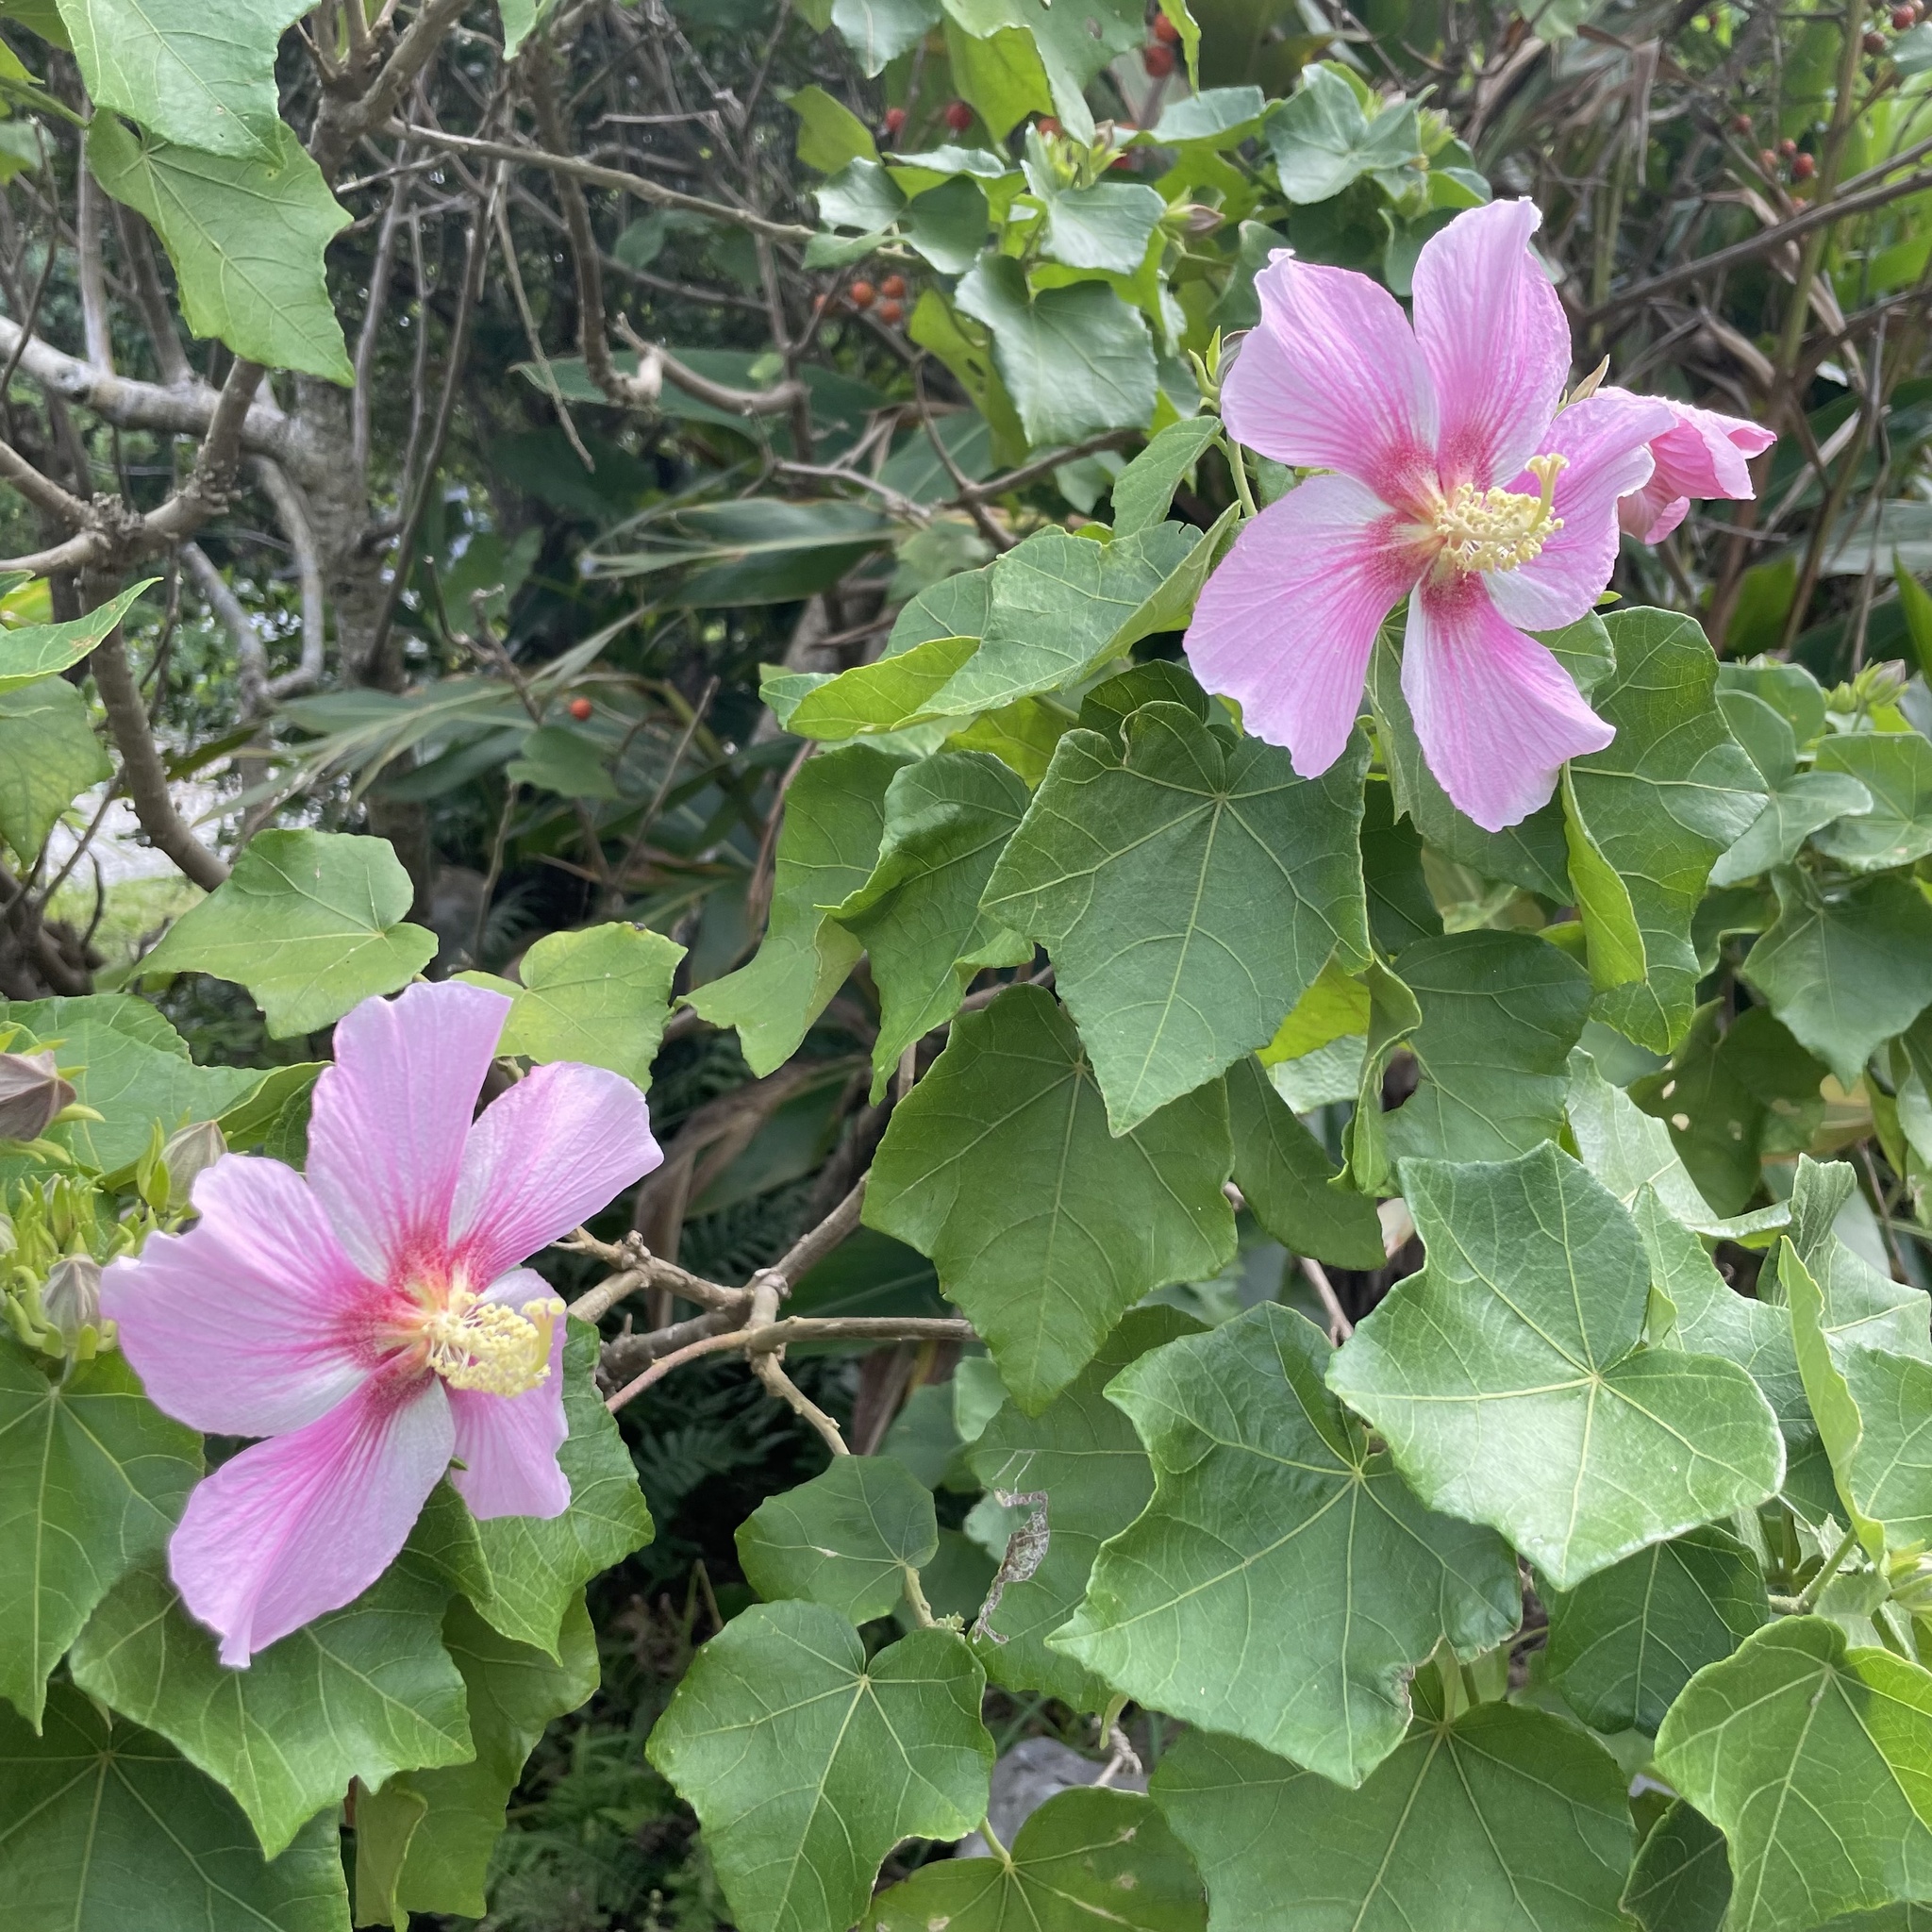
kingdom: Plantae
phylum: Tracheophyta
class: Magnoliopsida
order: Malvales
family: Malvaceae
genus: Hibiscus
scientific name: Hibiscus makinoi
